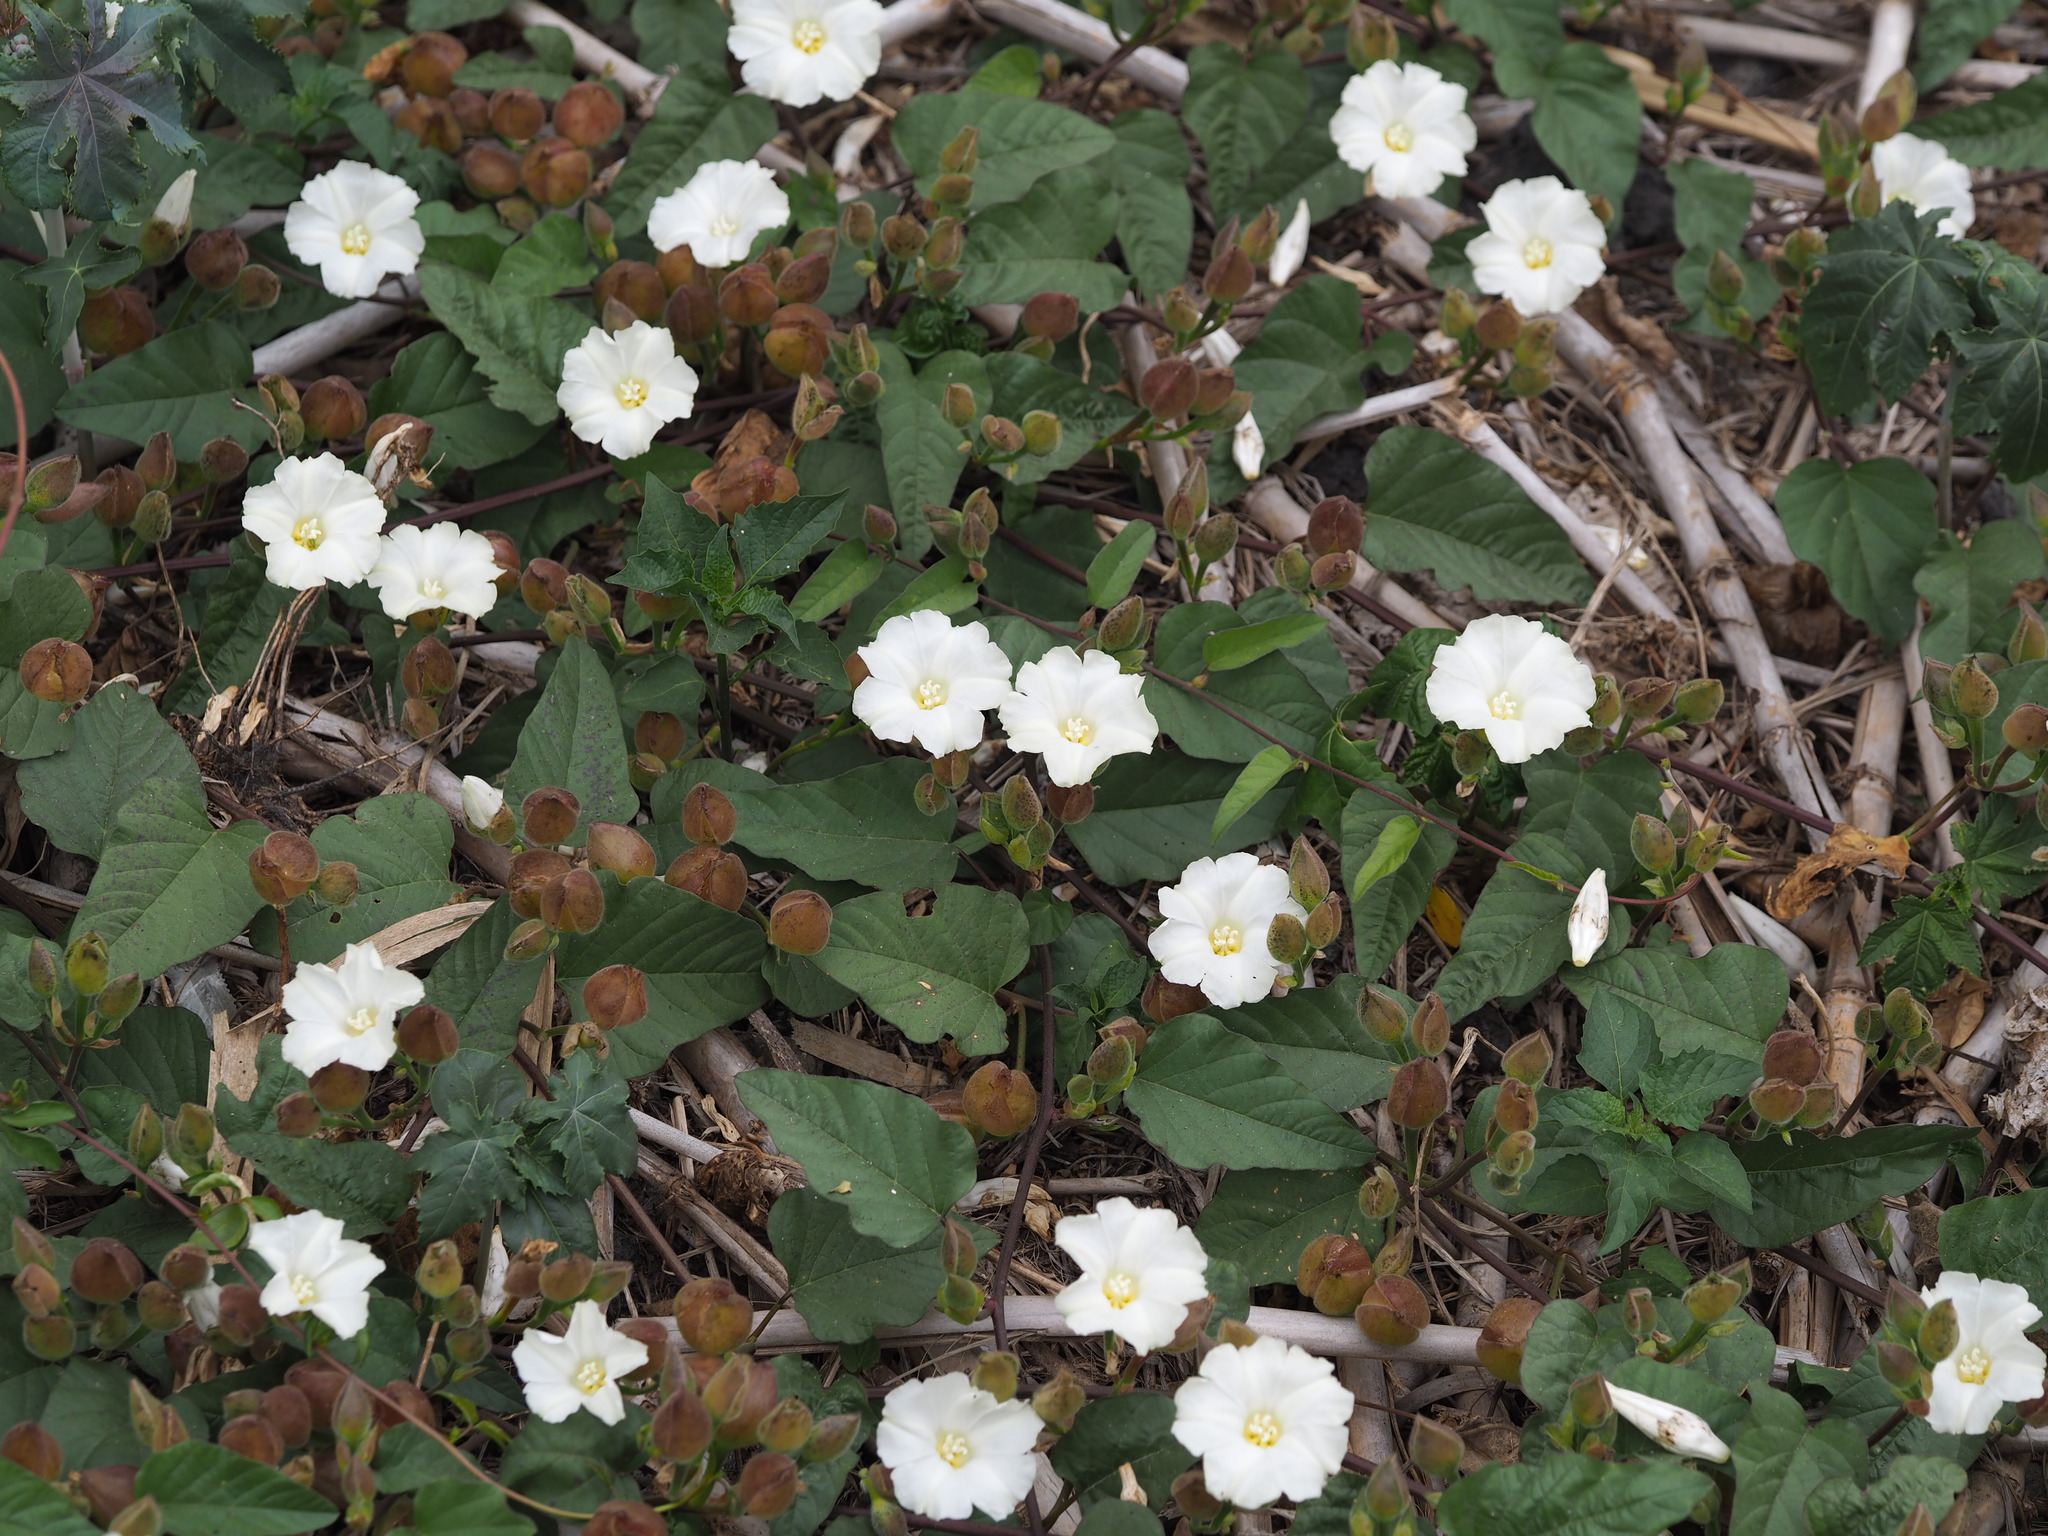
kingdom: Plantae
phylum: Tracheophyta
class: Magnoliopsida
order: Solanales
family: Convolvulaceae
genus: Operculina
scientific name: Operculina turpethum
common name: Transparent wood-rose
